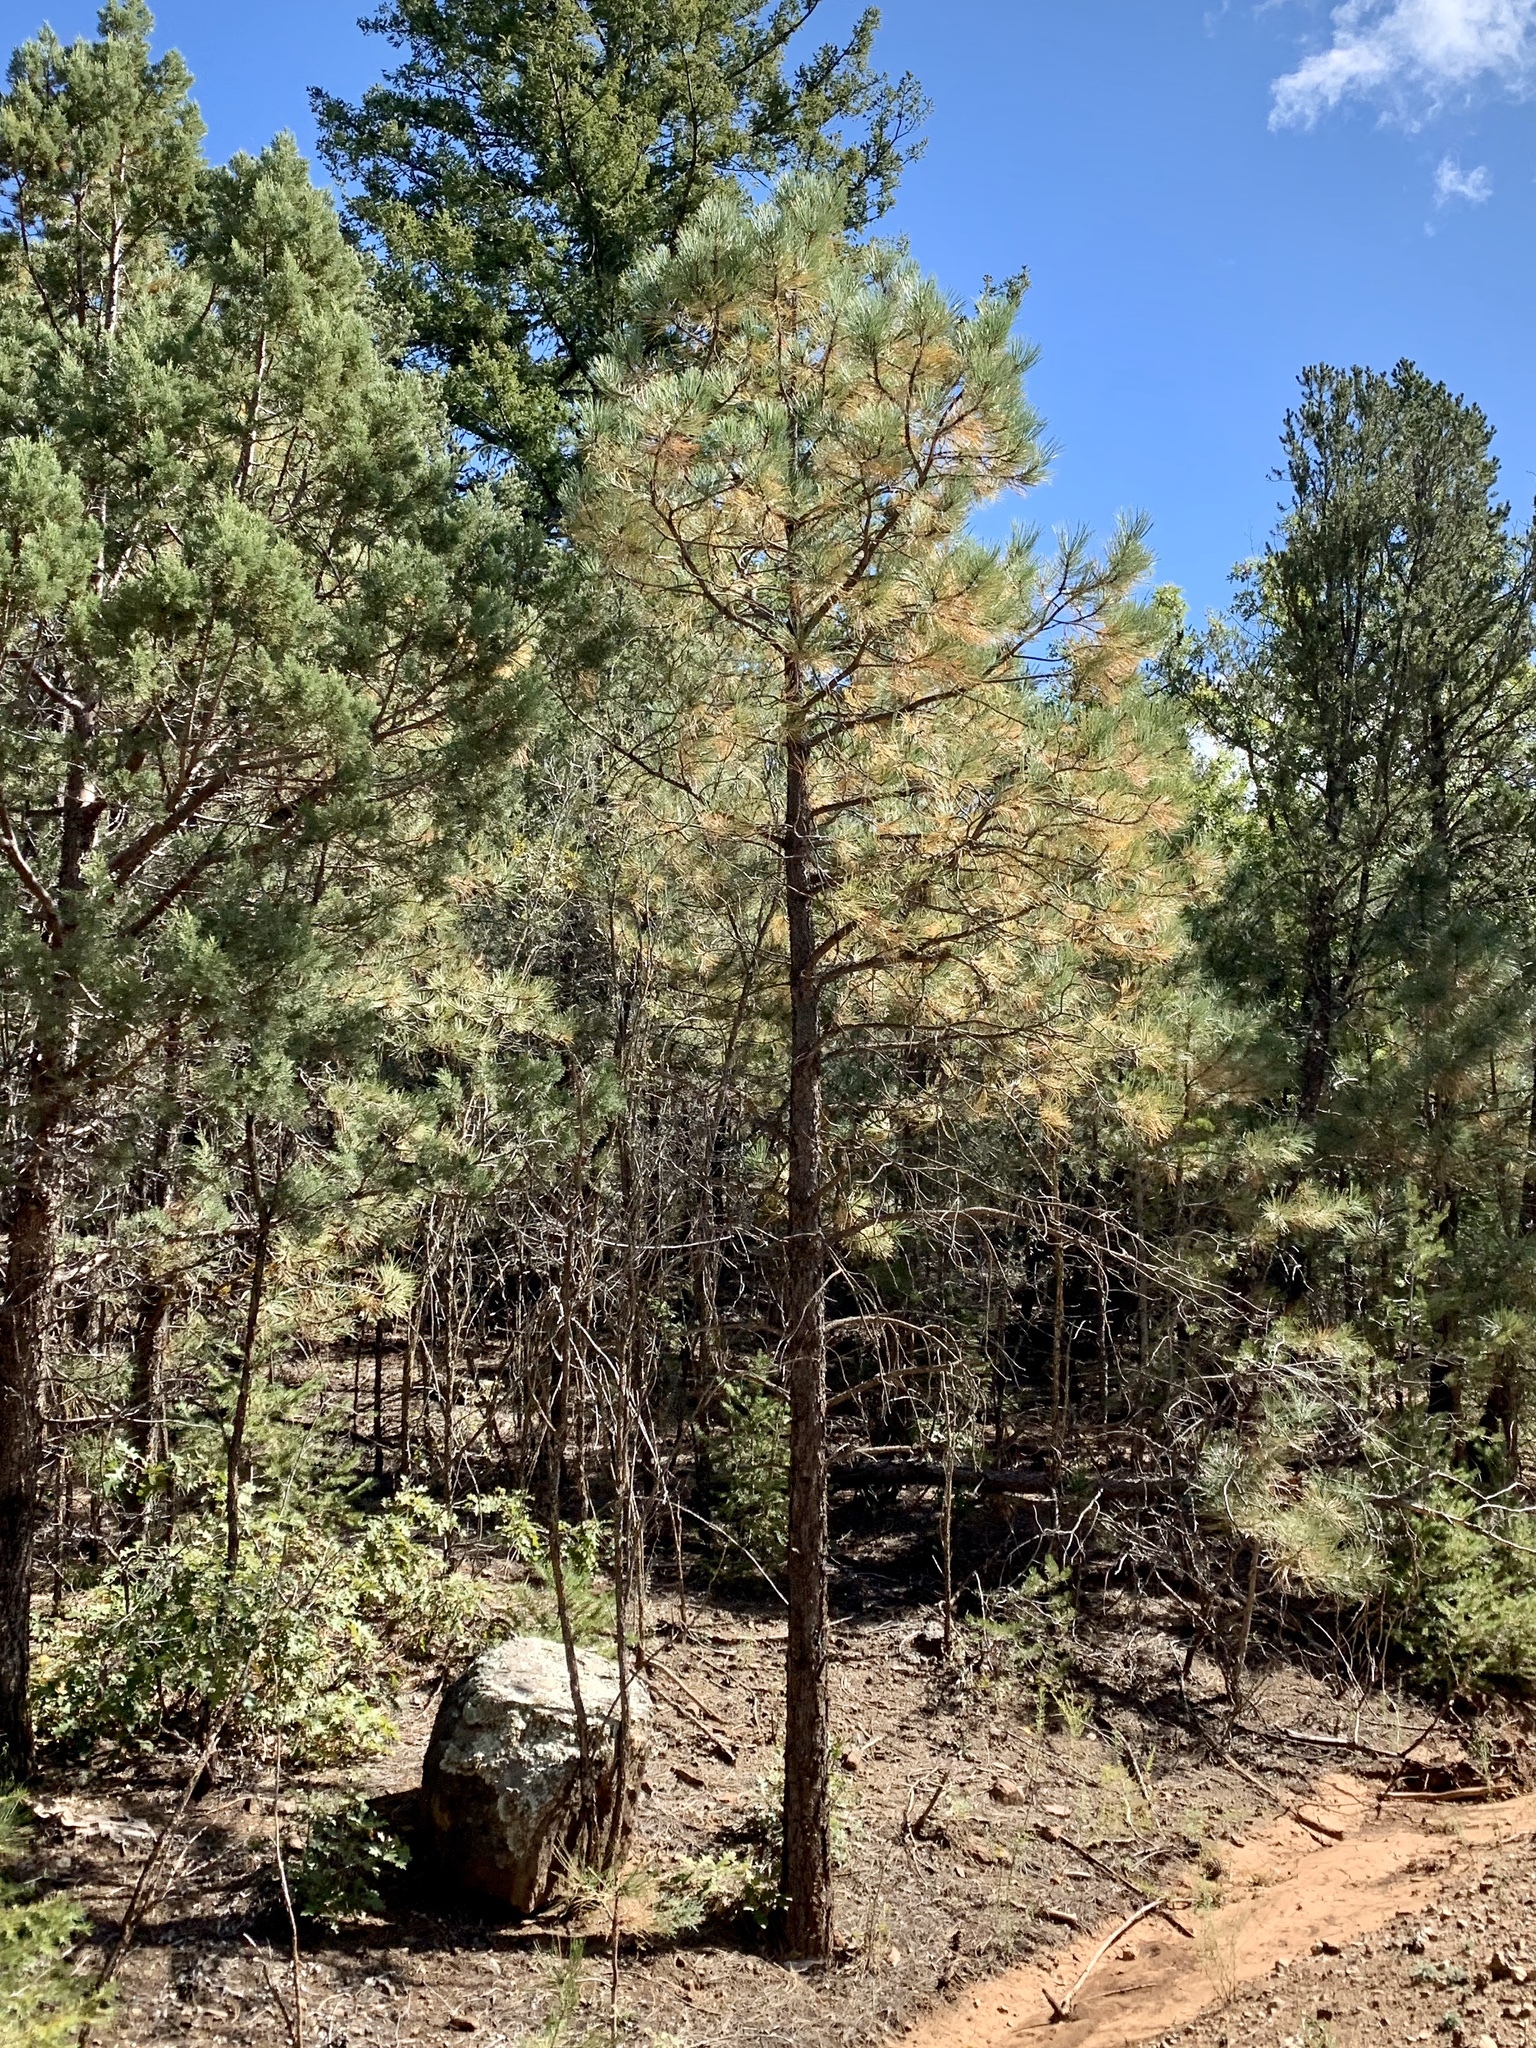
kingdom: Plantae
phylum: Tracheophyta
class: Pinopsida
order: Pinales
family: Pinaceae
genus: Pinus
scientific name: Pinus ponderosa
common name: Western yellow-pine
